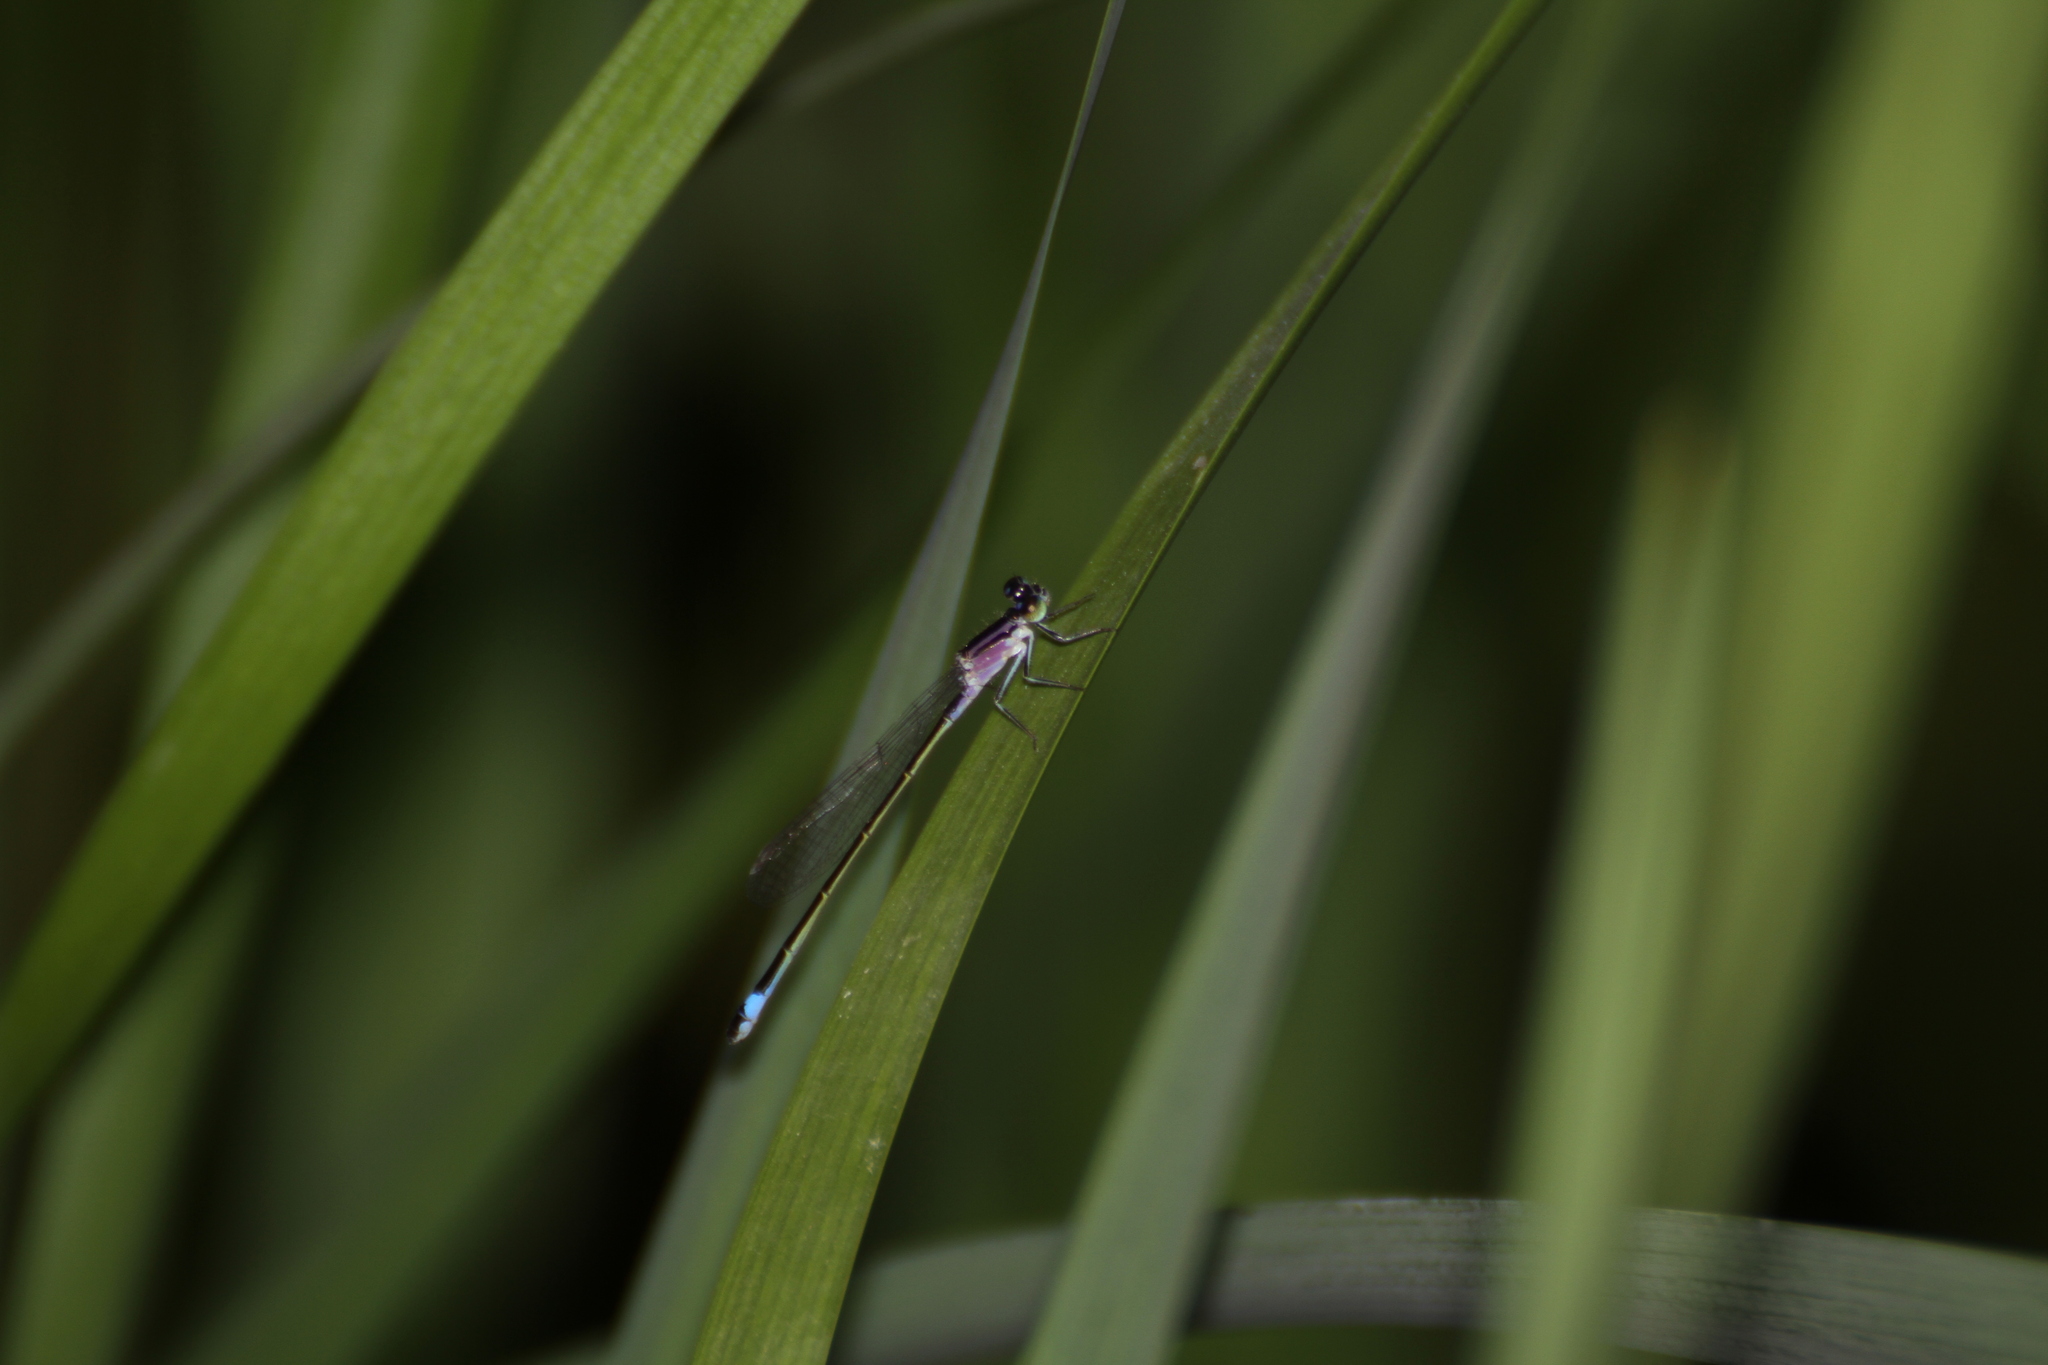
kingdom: Animalia
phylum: Arthropoda
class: Insecta
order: Odonata
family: Coenagrionidae
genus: Ischnura
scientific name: Ischnura elegans
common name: Blue-tailed damselfly
